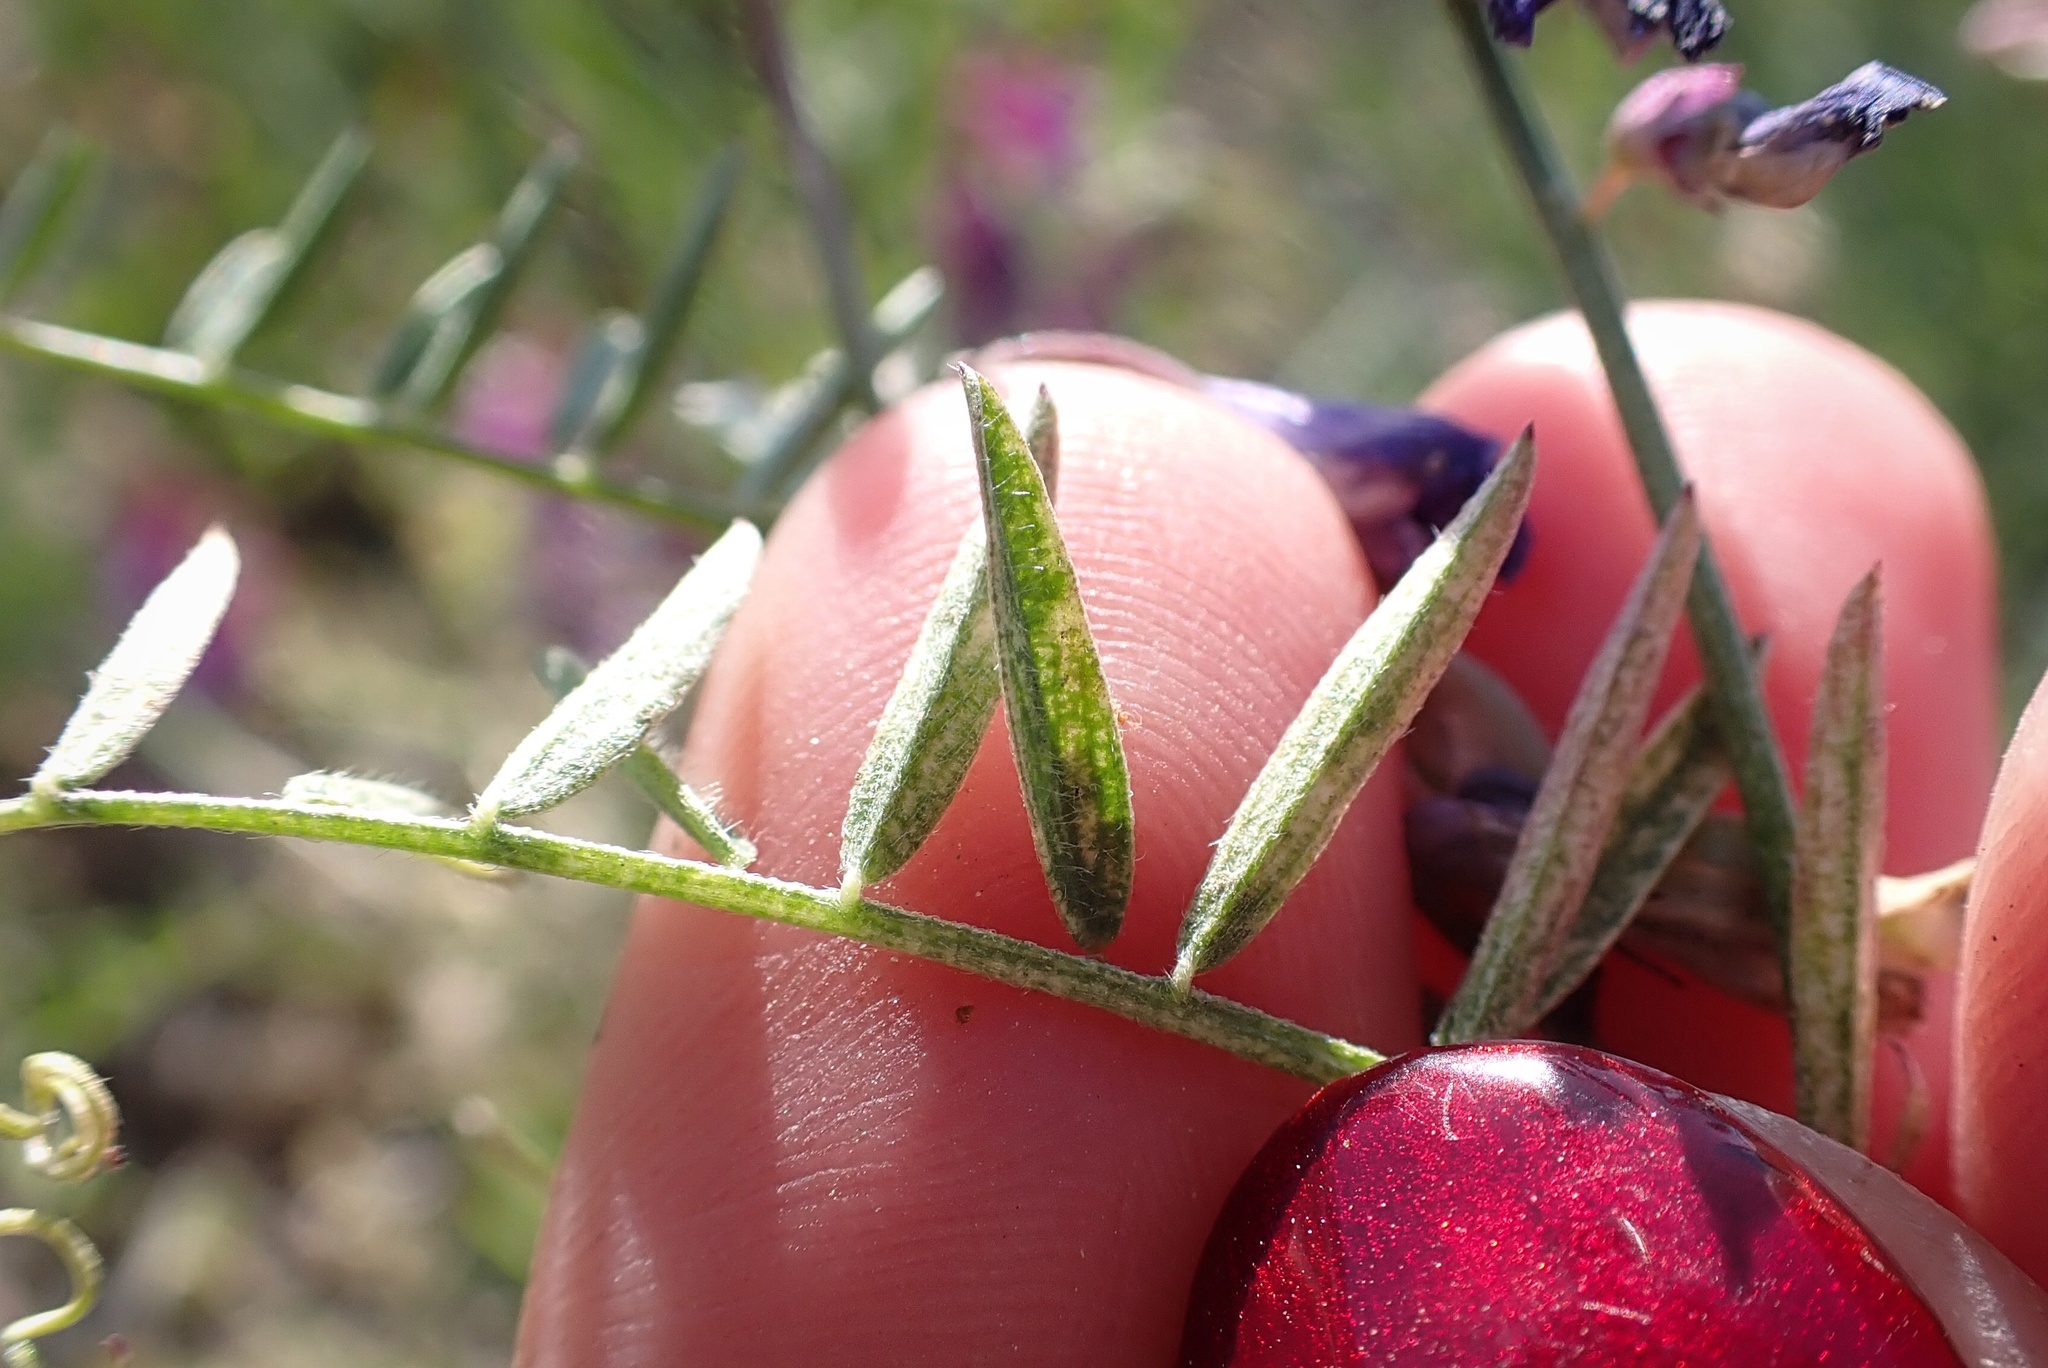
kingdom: Plantae
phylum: Tracheophyta
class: Magnoliopsida
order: Fabales
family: Fabaceae
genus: Vicia
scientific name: Vicia villosa
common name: Fodder vetch
